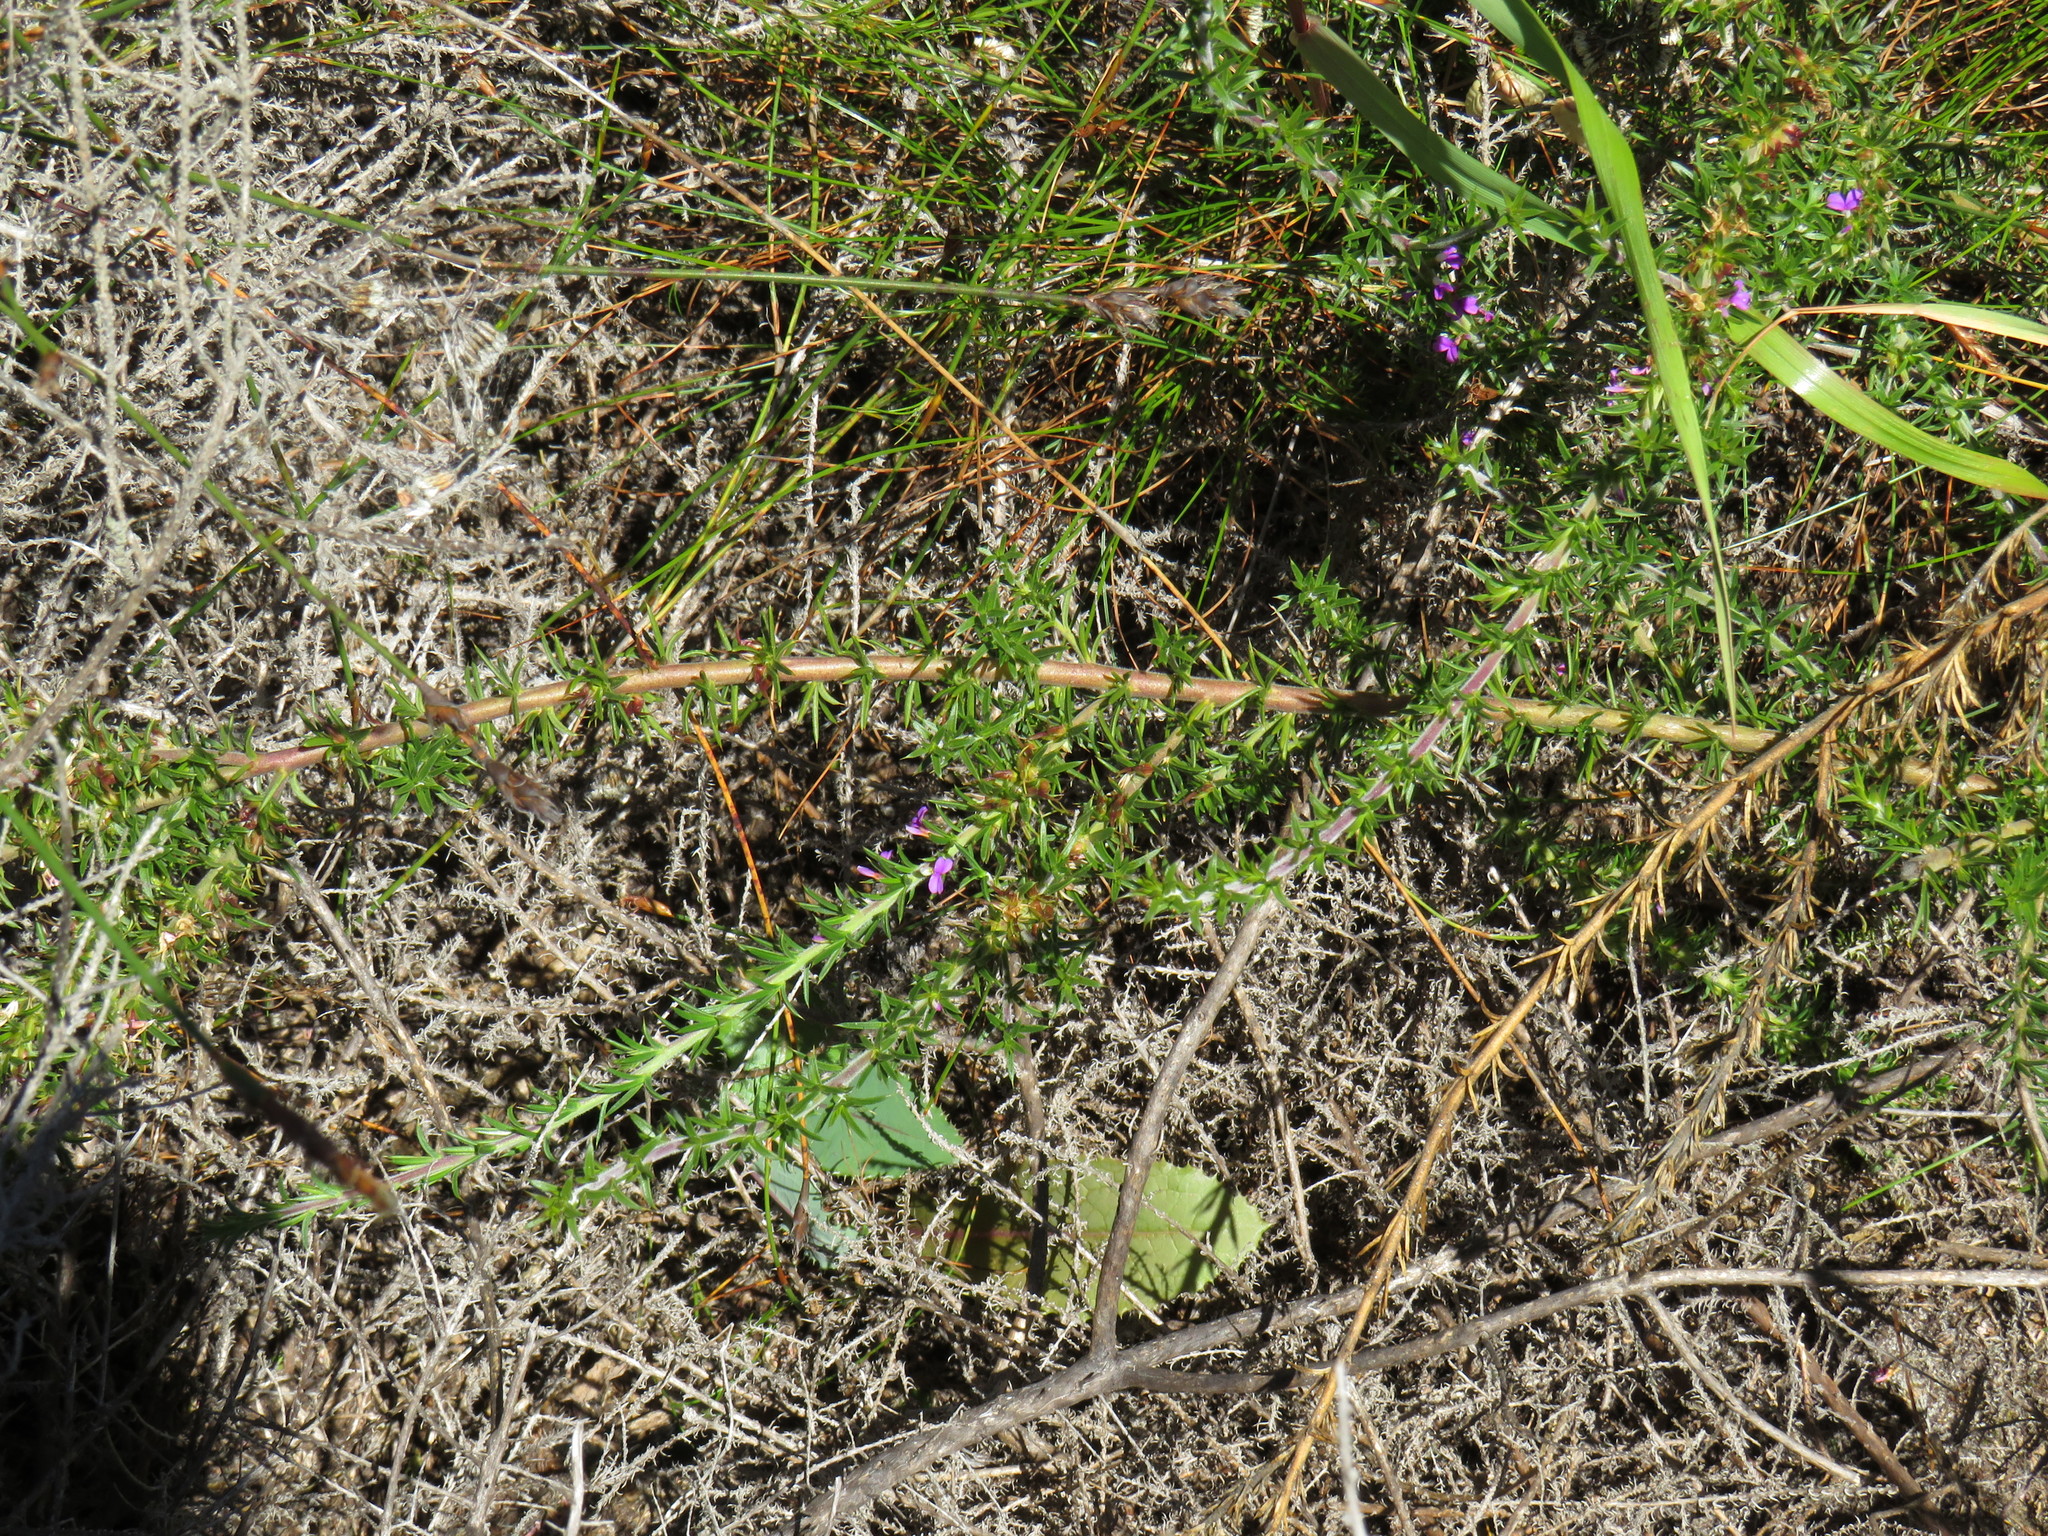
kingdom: Plantae
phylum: Tracheophyta
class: Magnoliopsida
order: Fabales
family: Polygalaceae
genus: Muraltia
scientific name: Muraltia heisteria
